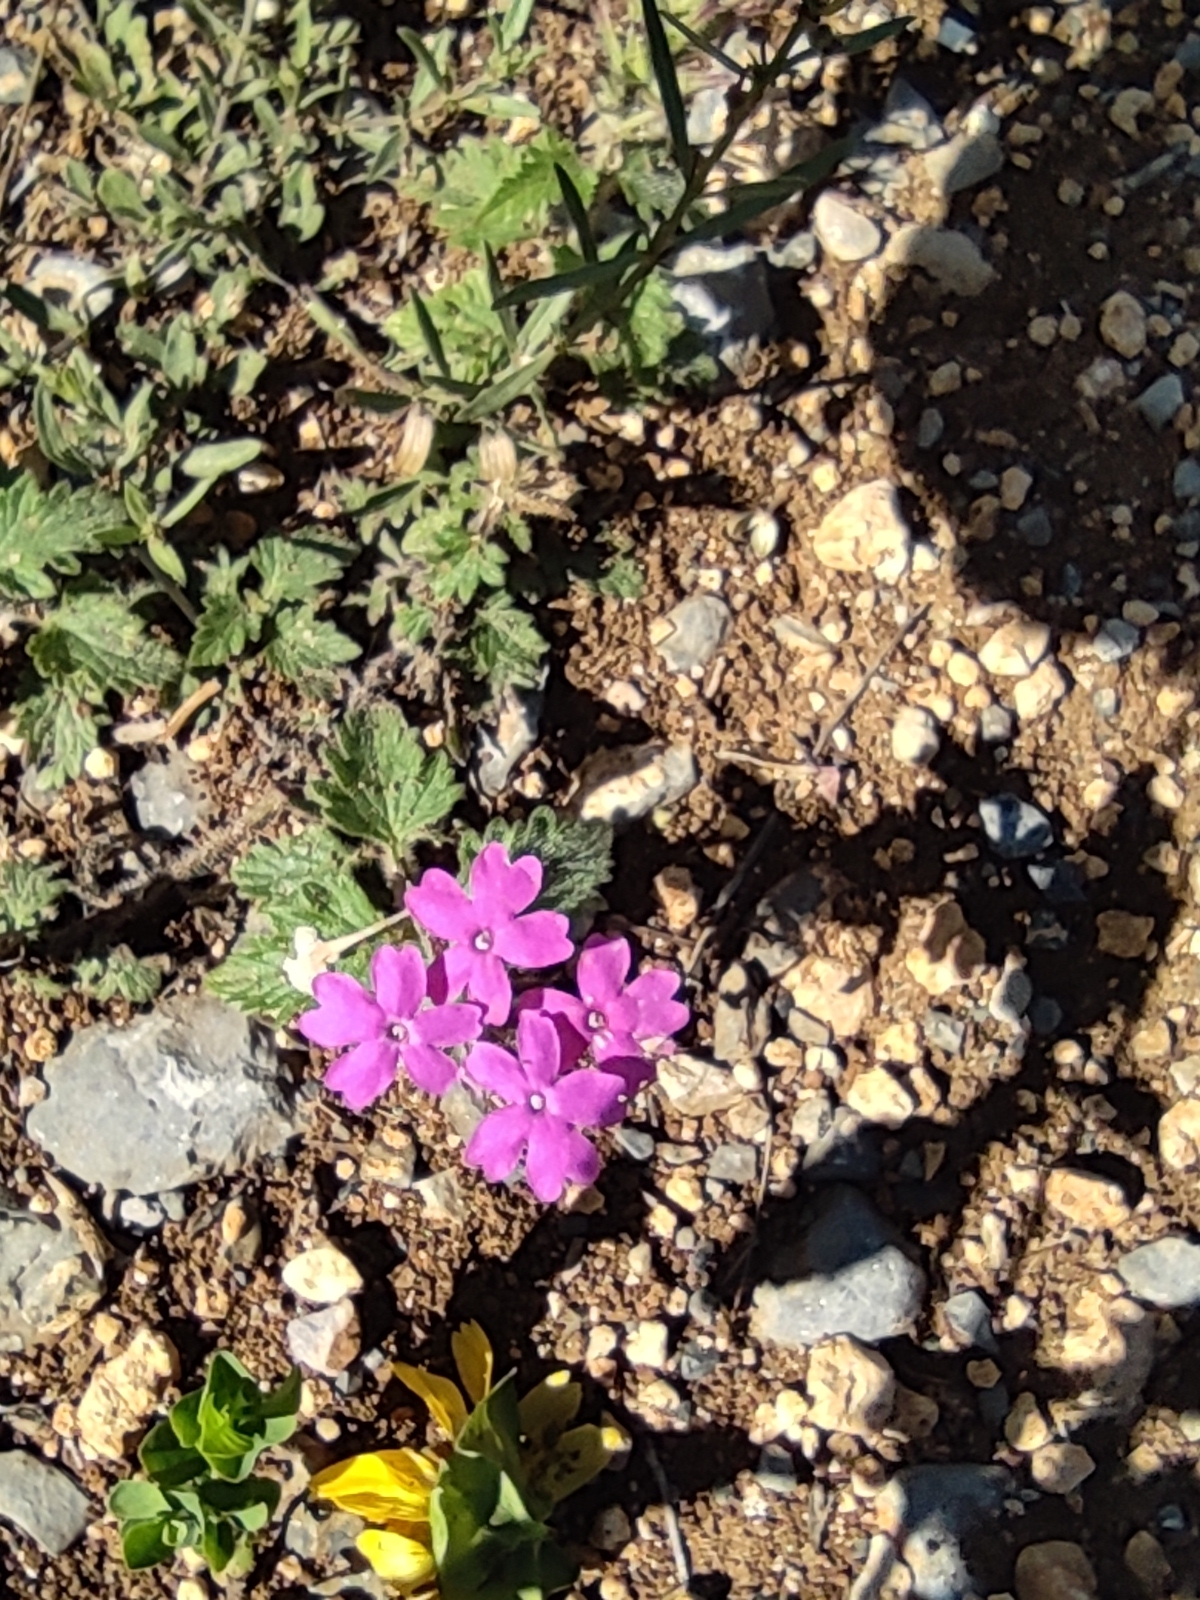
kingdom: Plantae
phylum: Tracheophyta
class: Magnoliopsida
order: Lamiales
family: Verbenaceae
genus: Verbena
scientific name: Verbena canadensis
